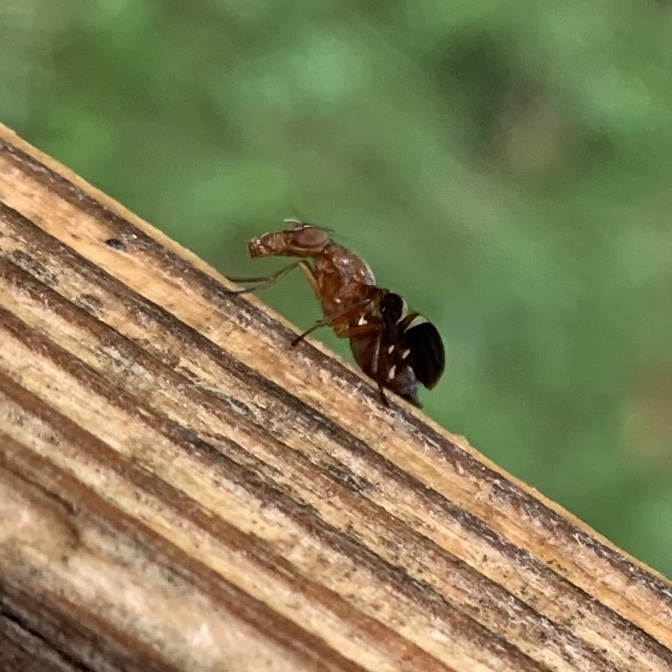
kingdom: Animalia
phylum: Arthropoda
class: Insecta
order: Diptera
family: Ulidiidae
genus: Delphinia
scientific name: Delphinia picta
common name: Common picture-winged fly
